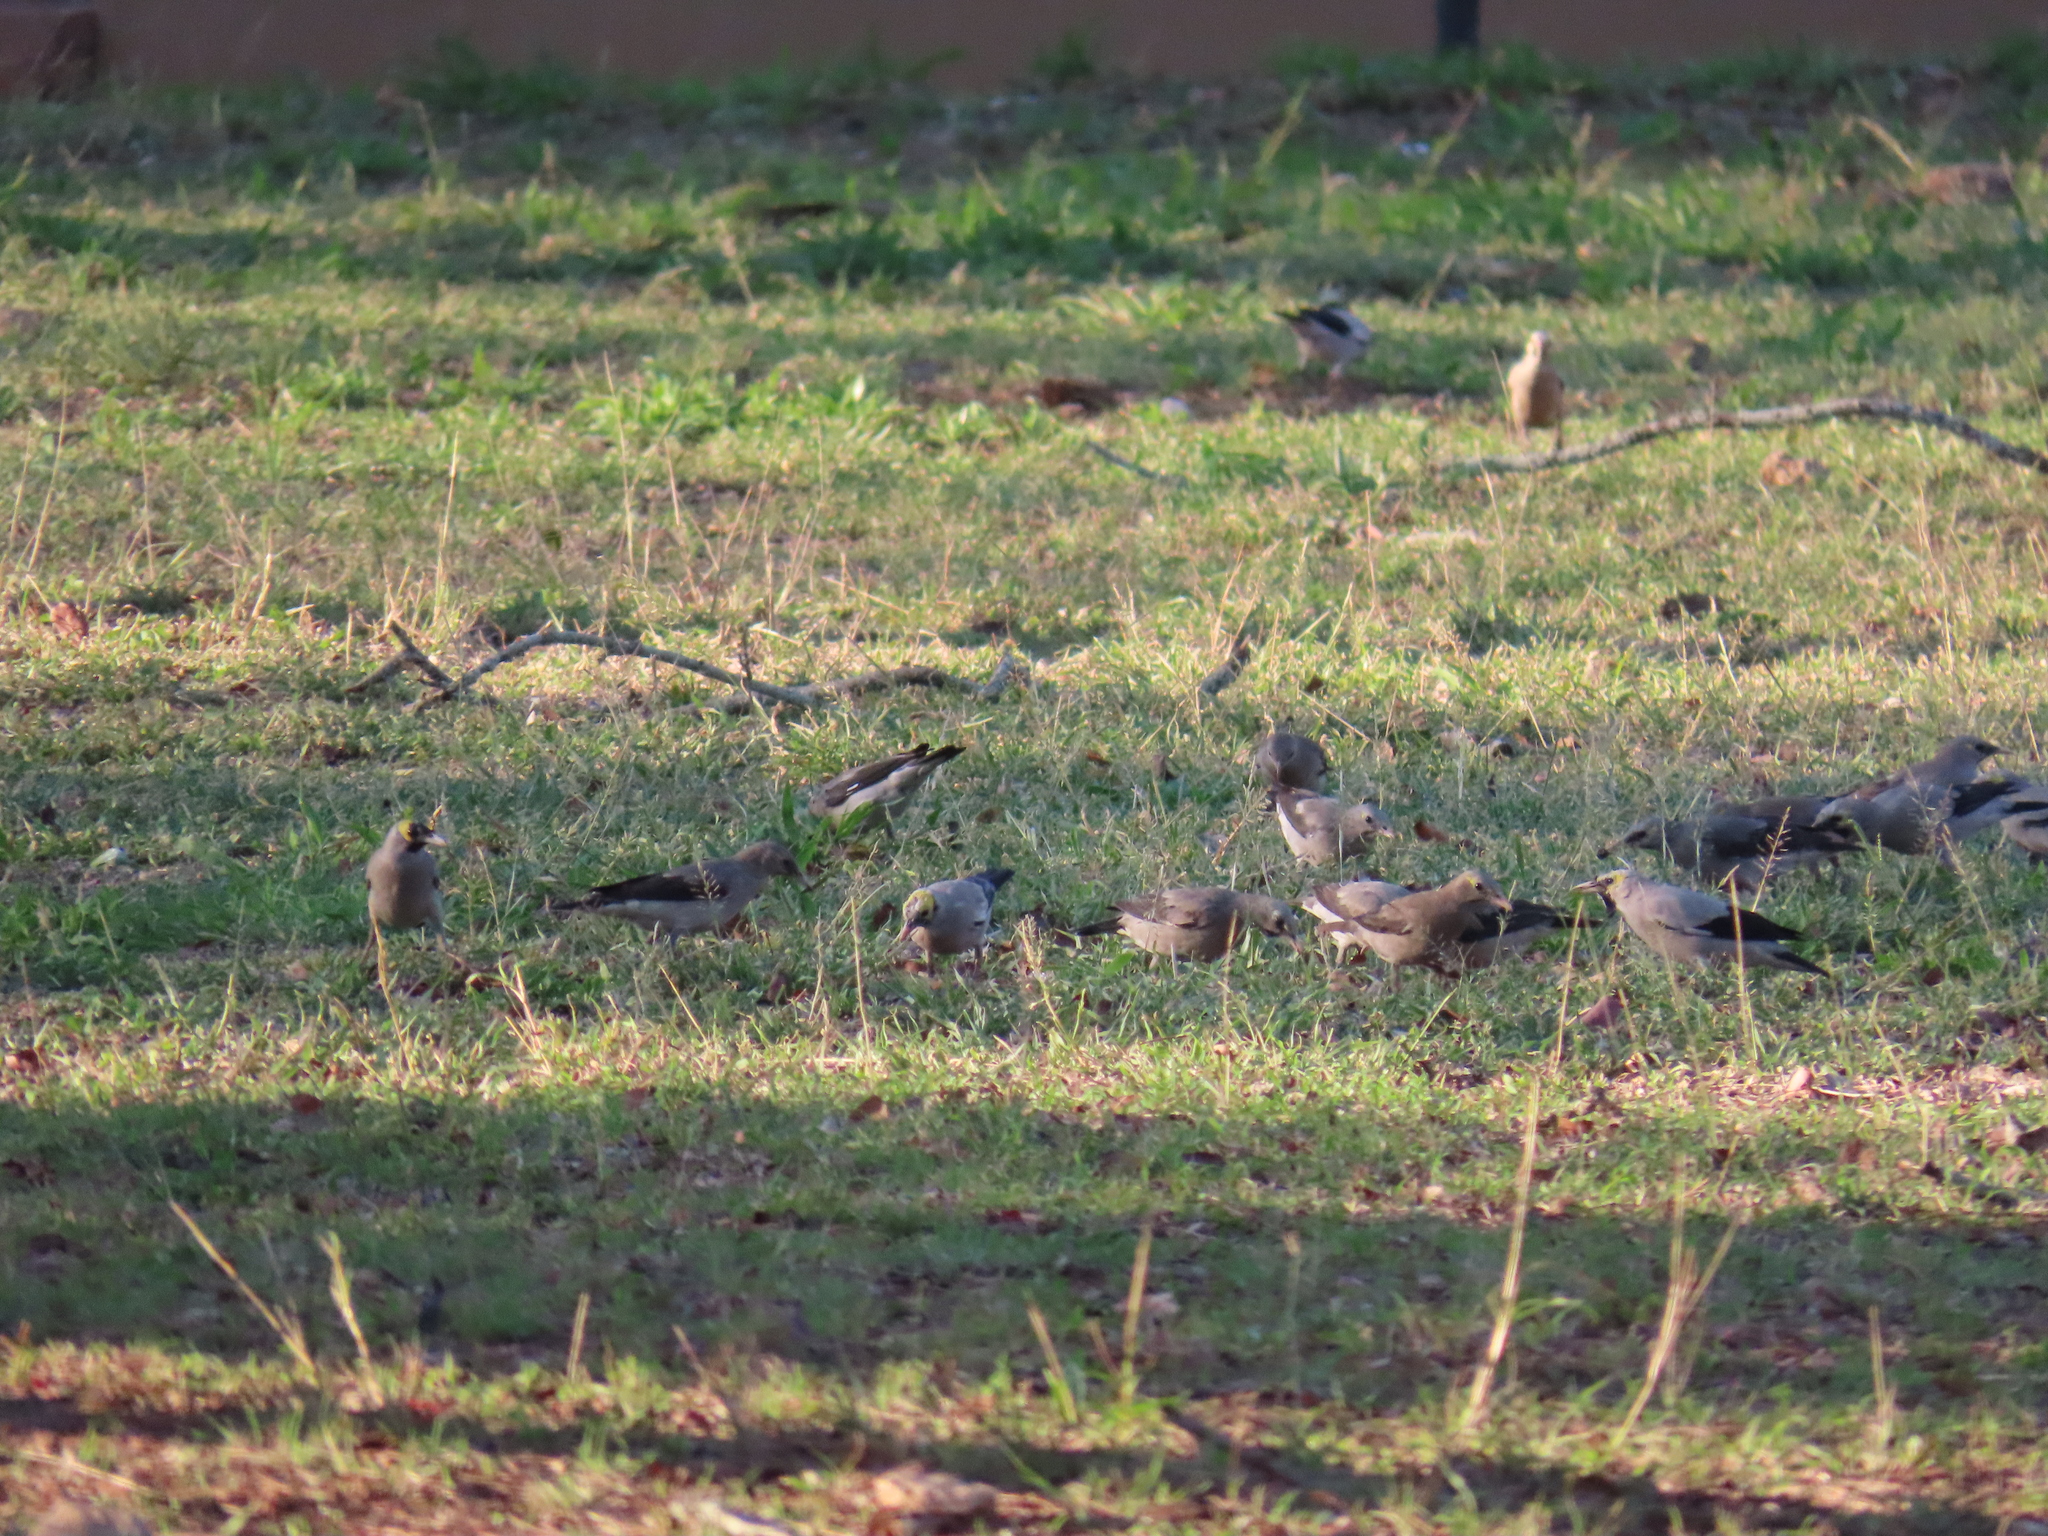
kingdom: Animalia
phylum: Chordata
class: Aves
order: Passeriformes
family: Sturnidae
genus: Creatophora
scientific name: Creatophora cinerea
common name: Wattled starling
